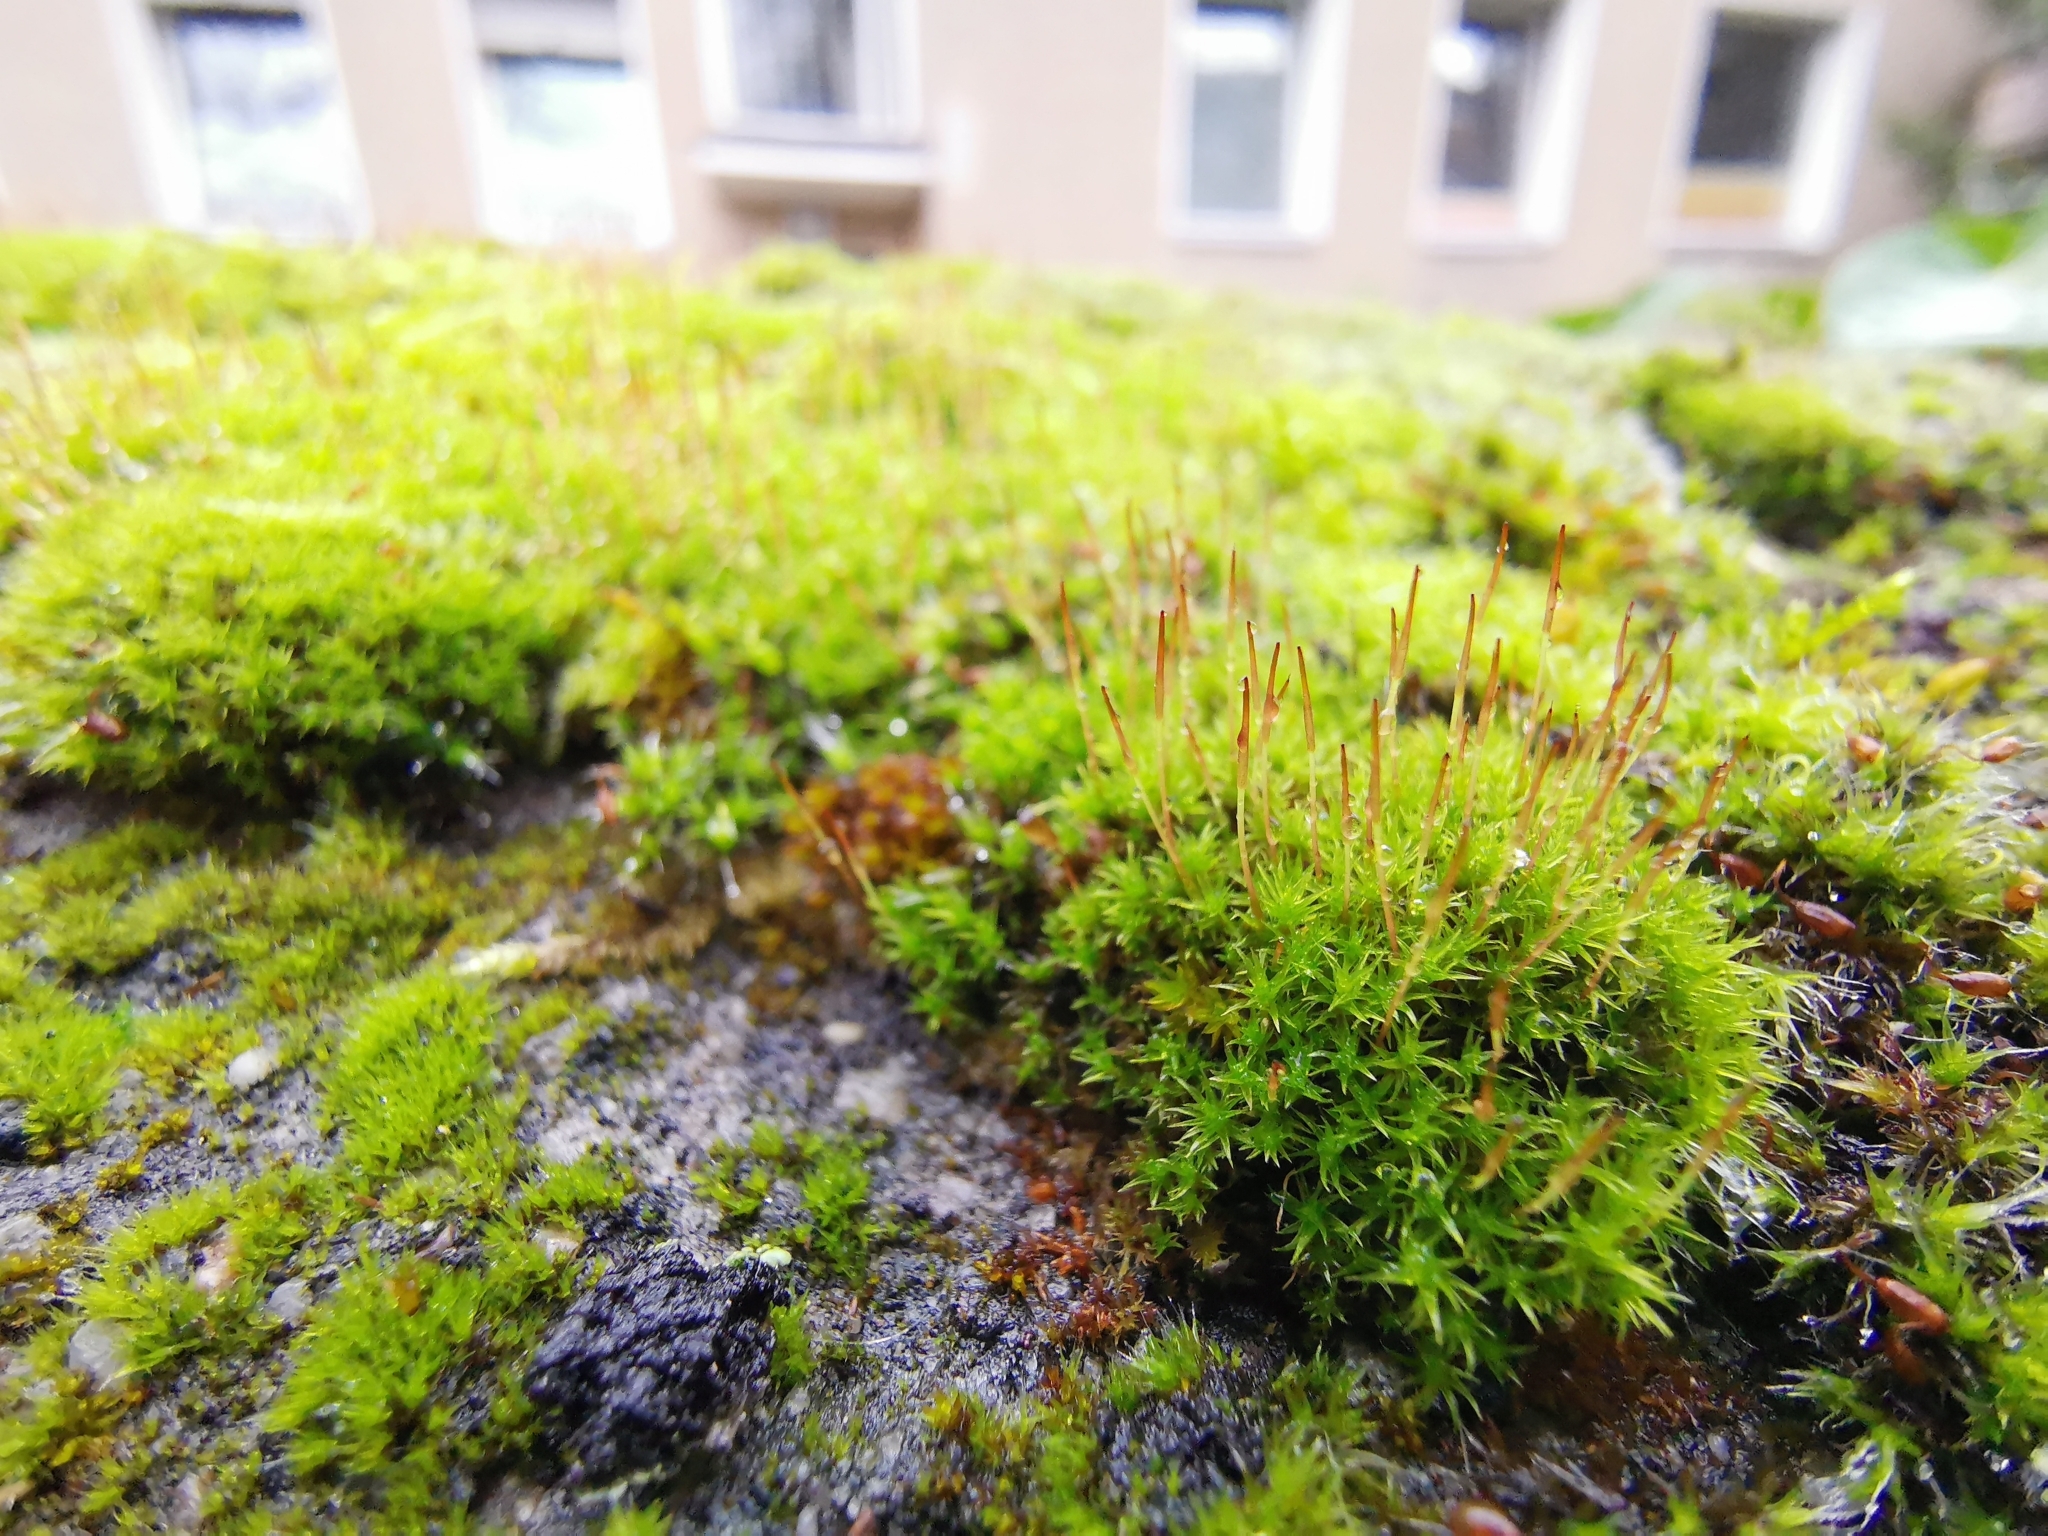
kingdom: Plantae
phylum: Bryophyta
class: Bryopsida
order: Dicranales
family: Ditrichaceae
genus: Ceratodon
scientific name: Ceratodon purpureus
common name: Redshank
